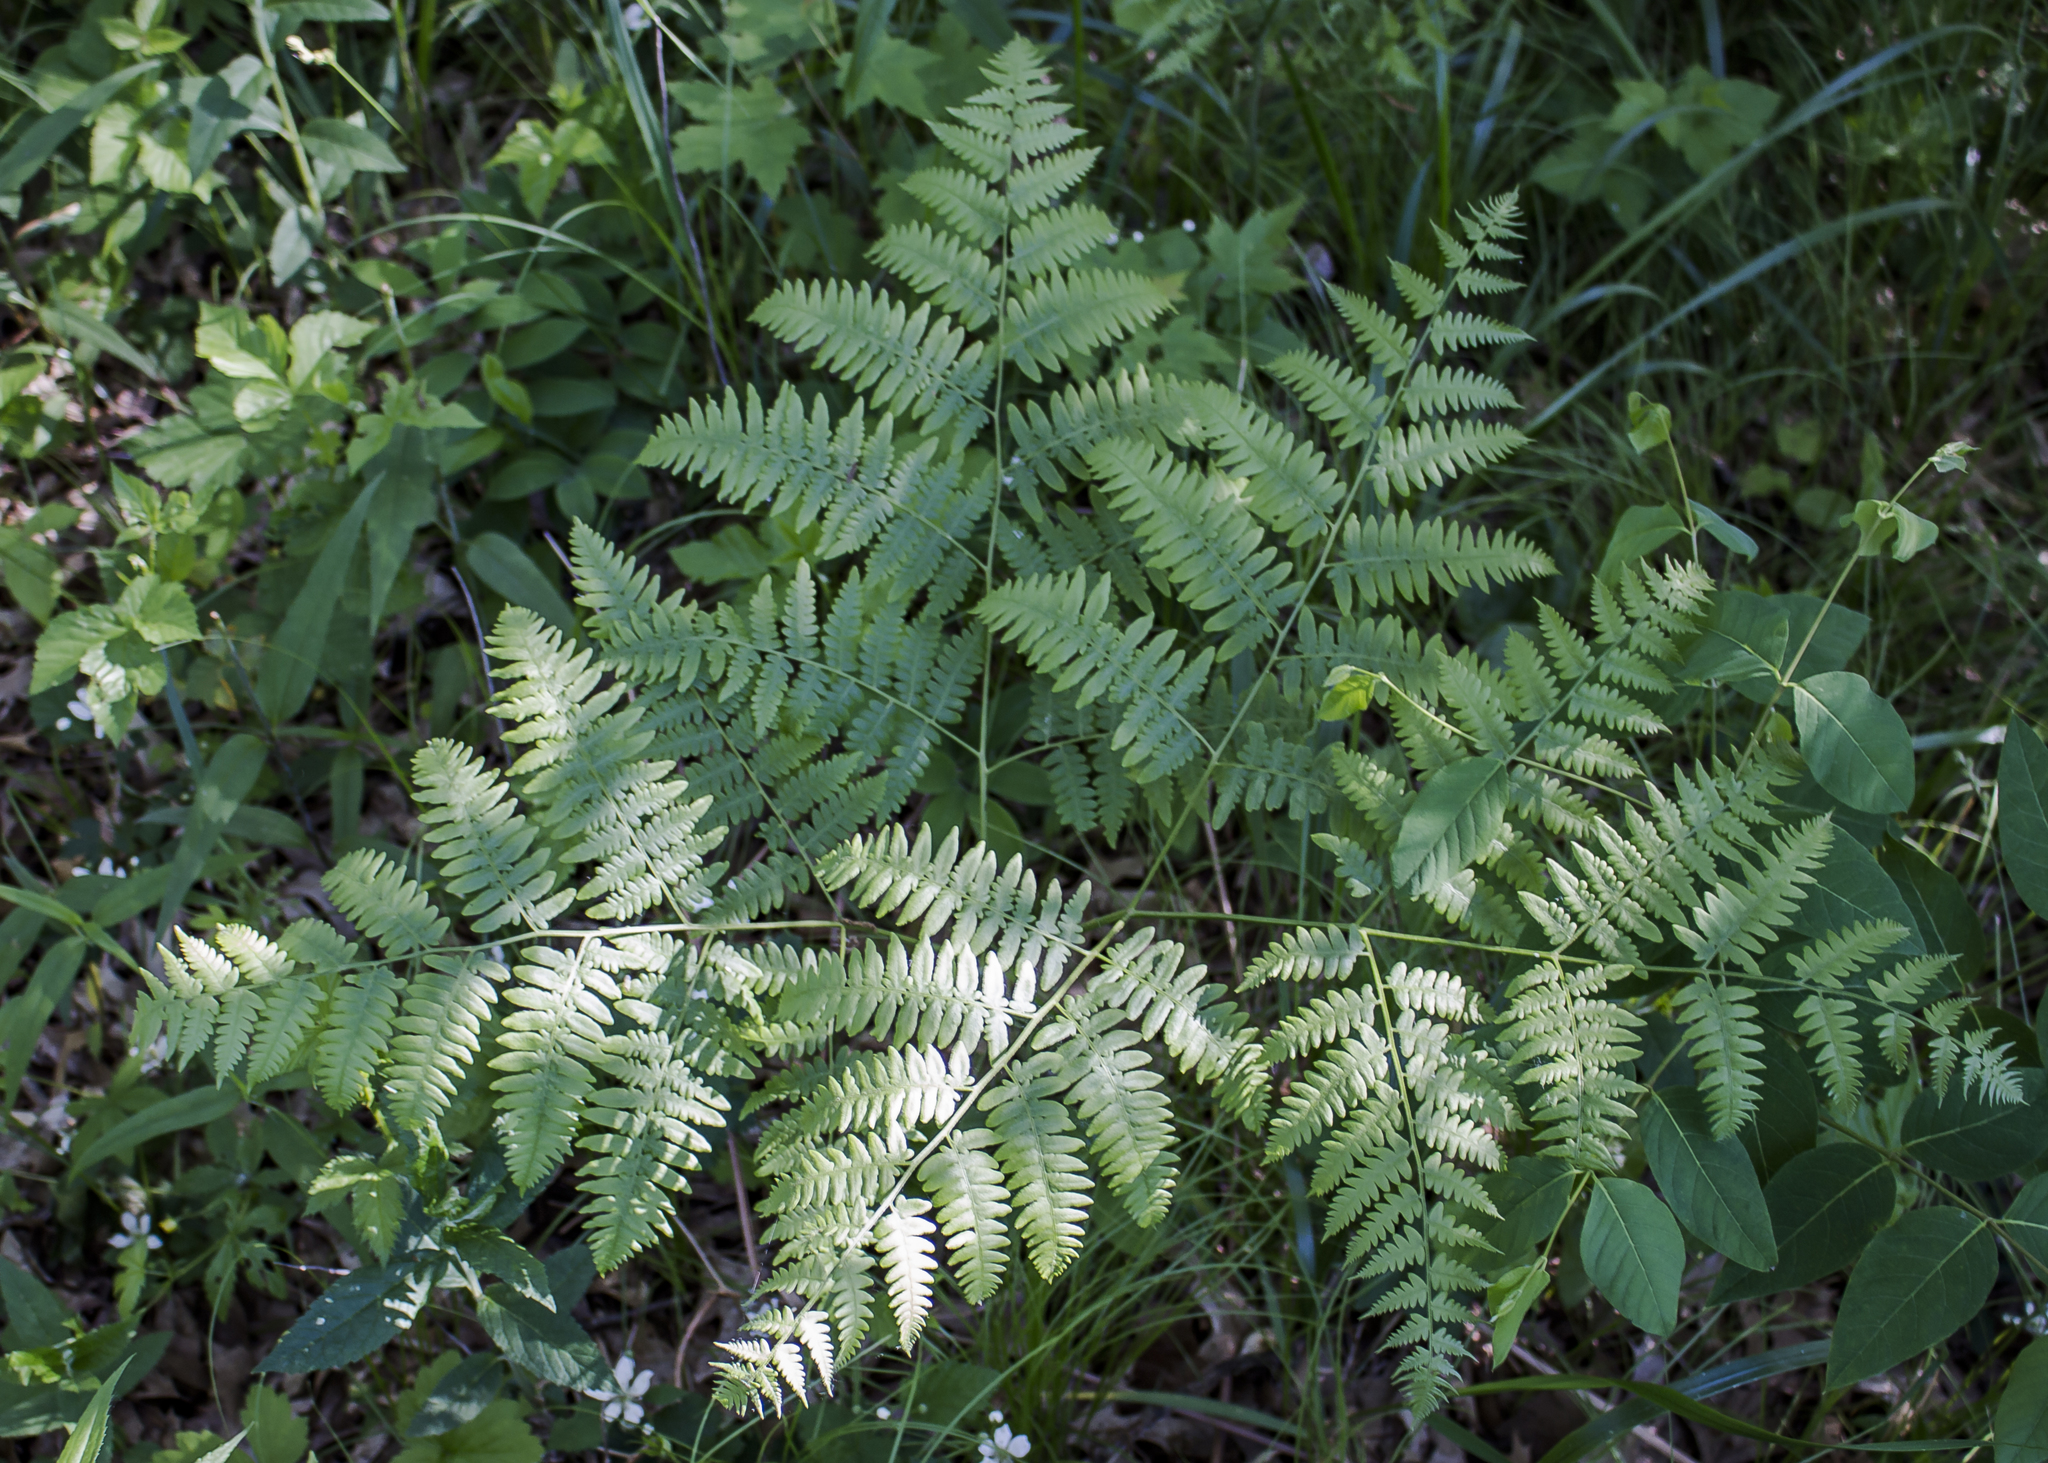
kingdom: Plantae
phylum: Tracheophyta
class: Polypodiopsida
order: Polypodiales
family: Dennstaedtiaceae
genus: Pteridium
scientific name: Pteridium aquilinum
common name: Bracken
